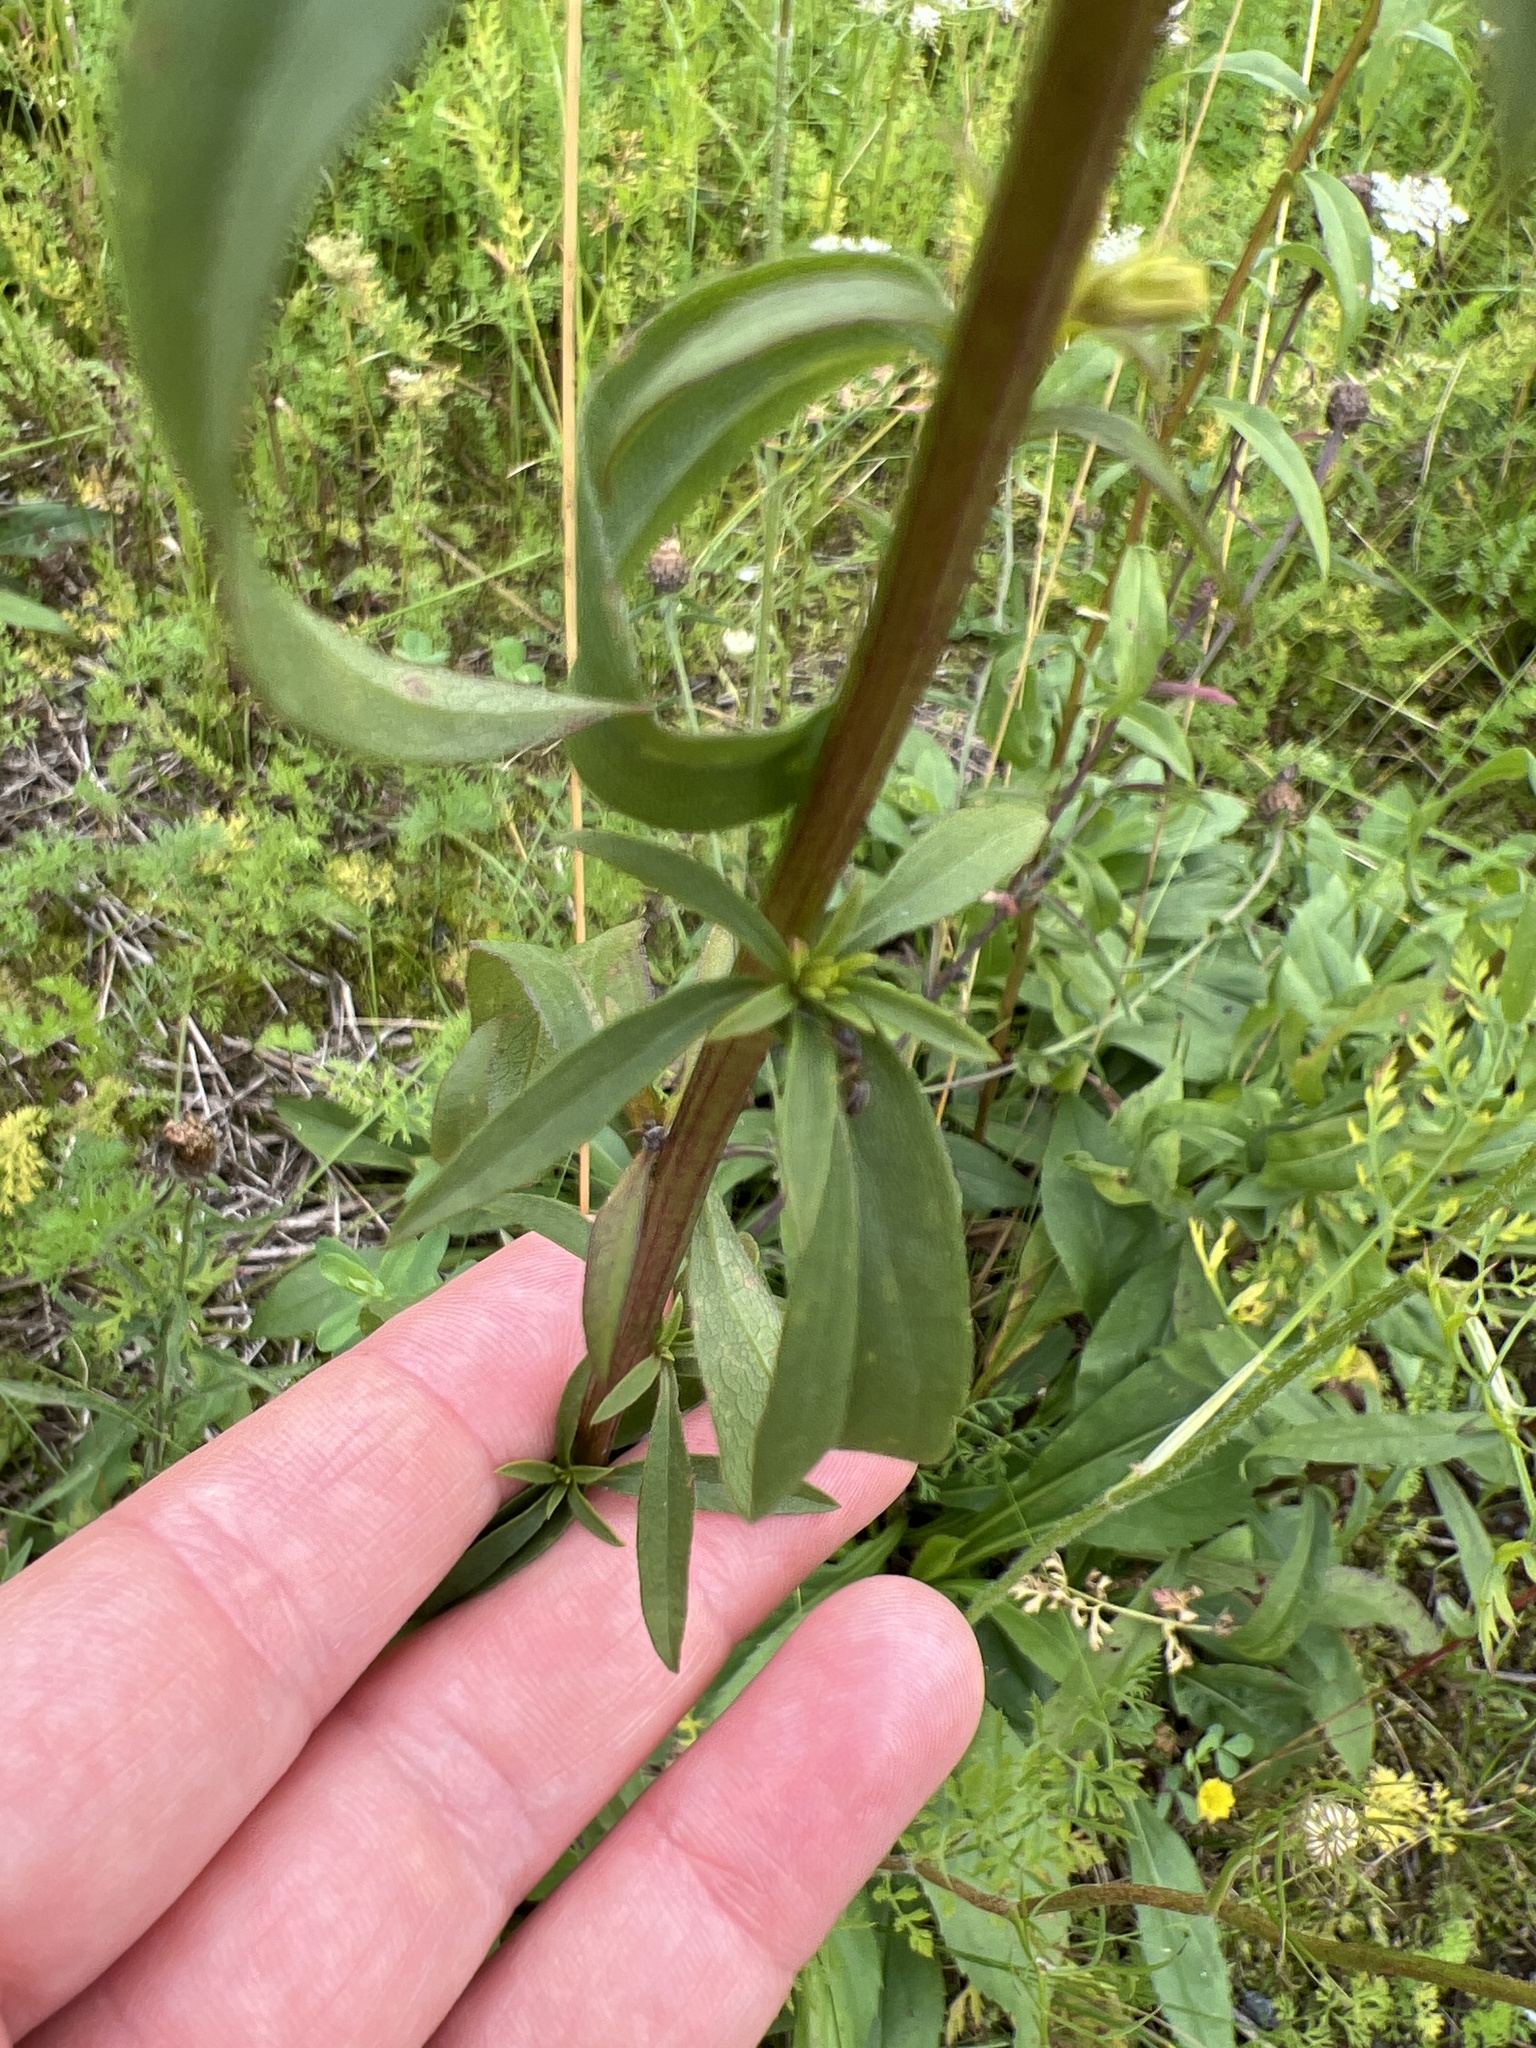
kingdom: Plantae
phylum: Tracheophyta
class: Magnoliopsida
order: Asterales
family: Asteraceae
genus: Solidago
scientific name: Solidago juncea
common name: Early goldenrod
